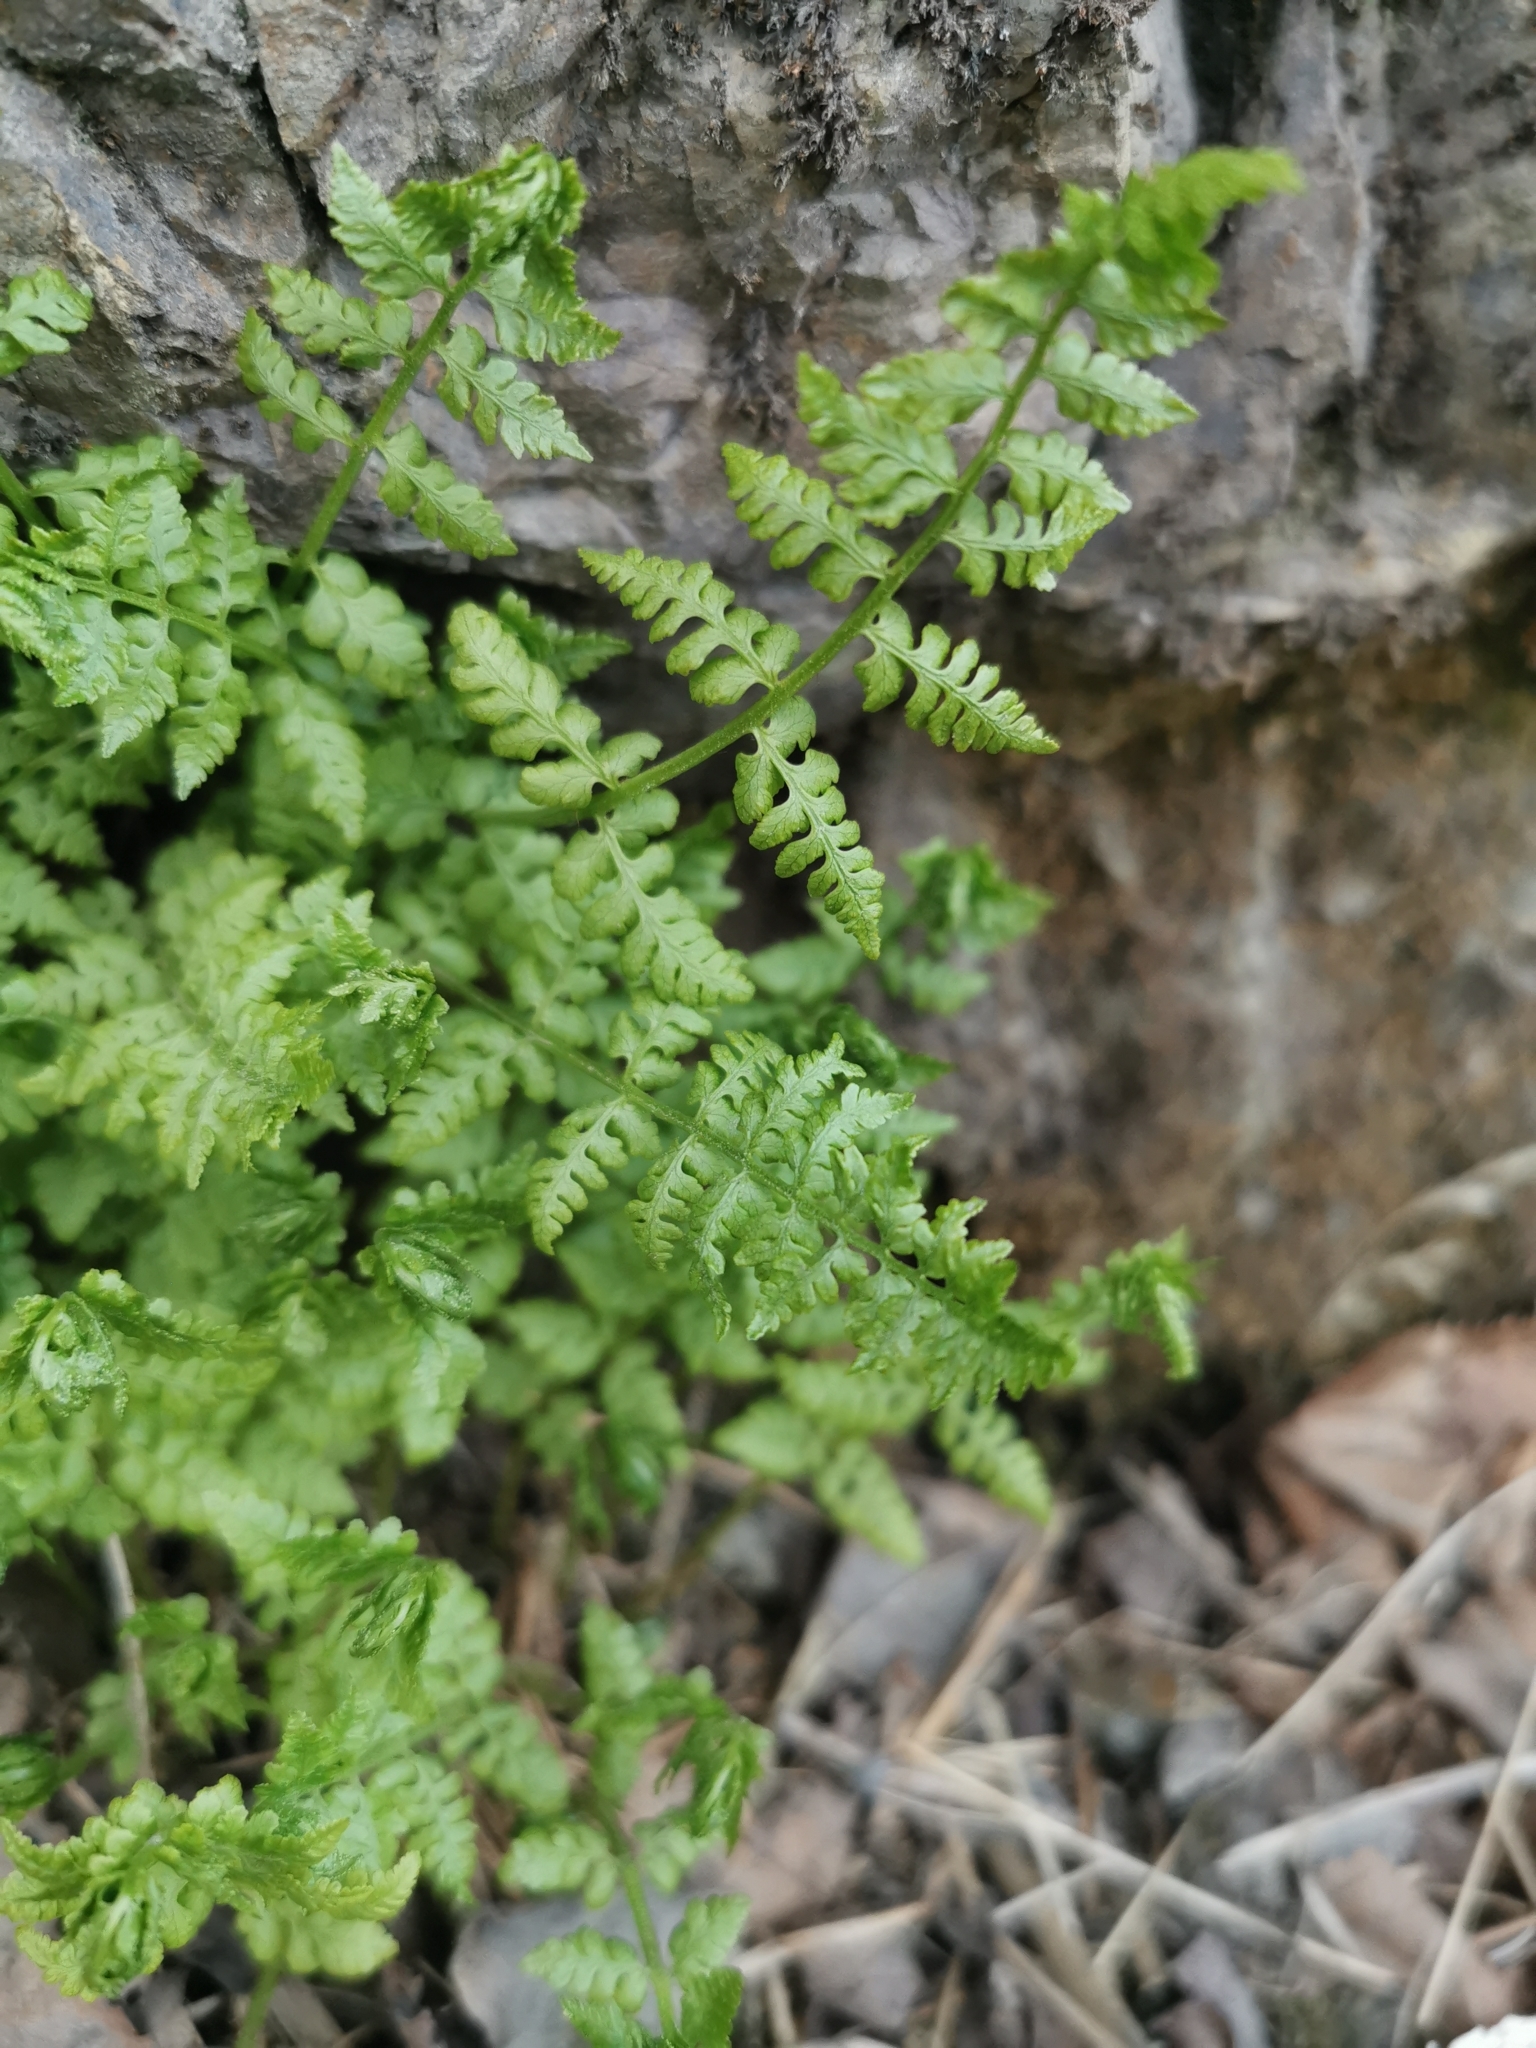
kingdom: Plantae
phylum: Tracheophyta
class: Polypodiopsida
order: Polypodiales
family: Cystopteridaceae
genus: Cystopteris
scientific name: Cystopteris fragilis
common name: Brittle bladder fern
